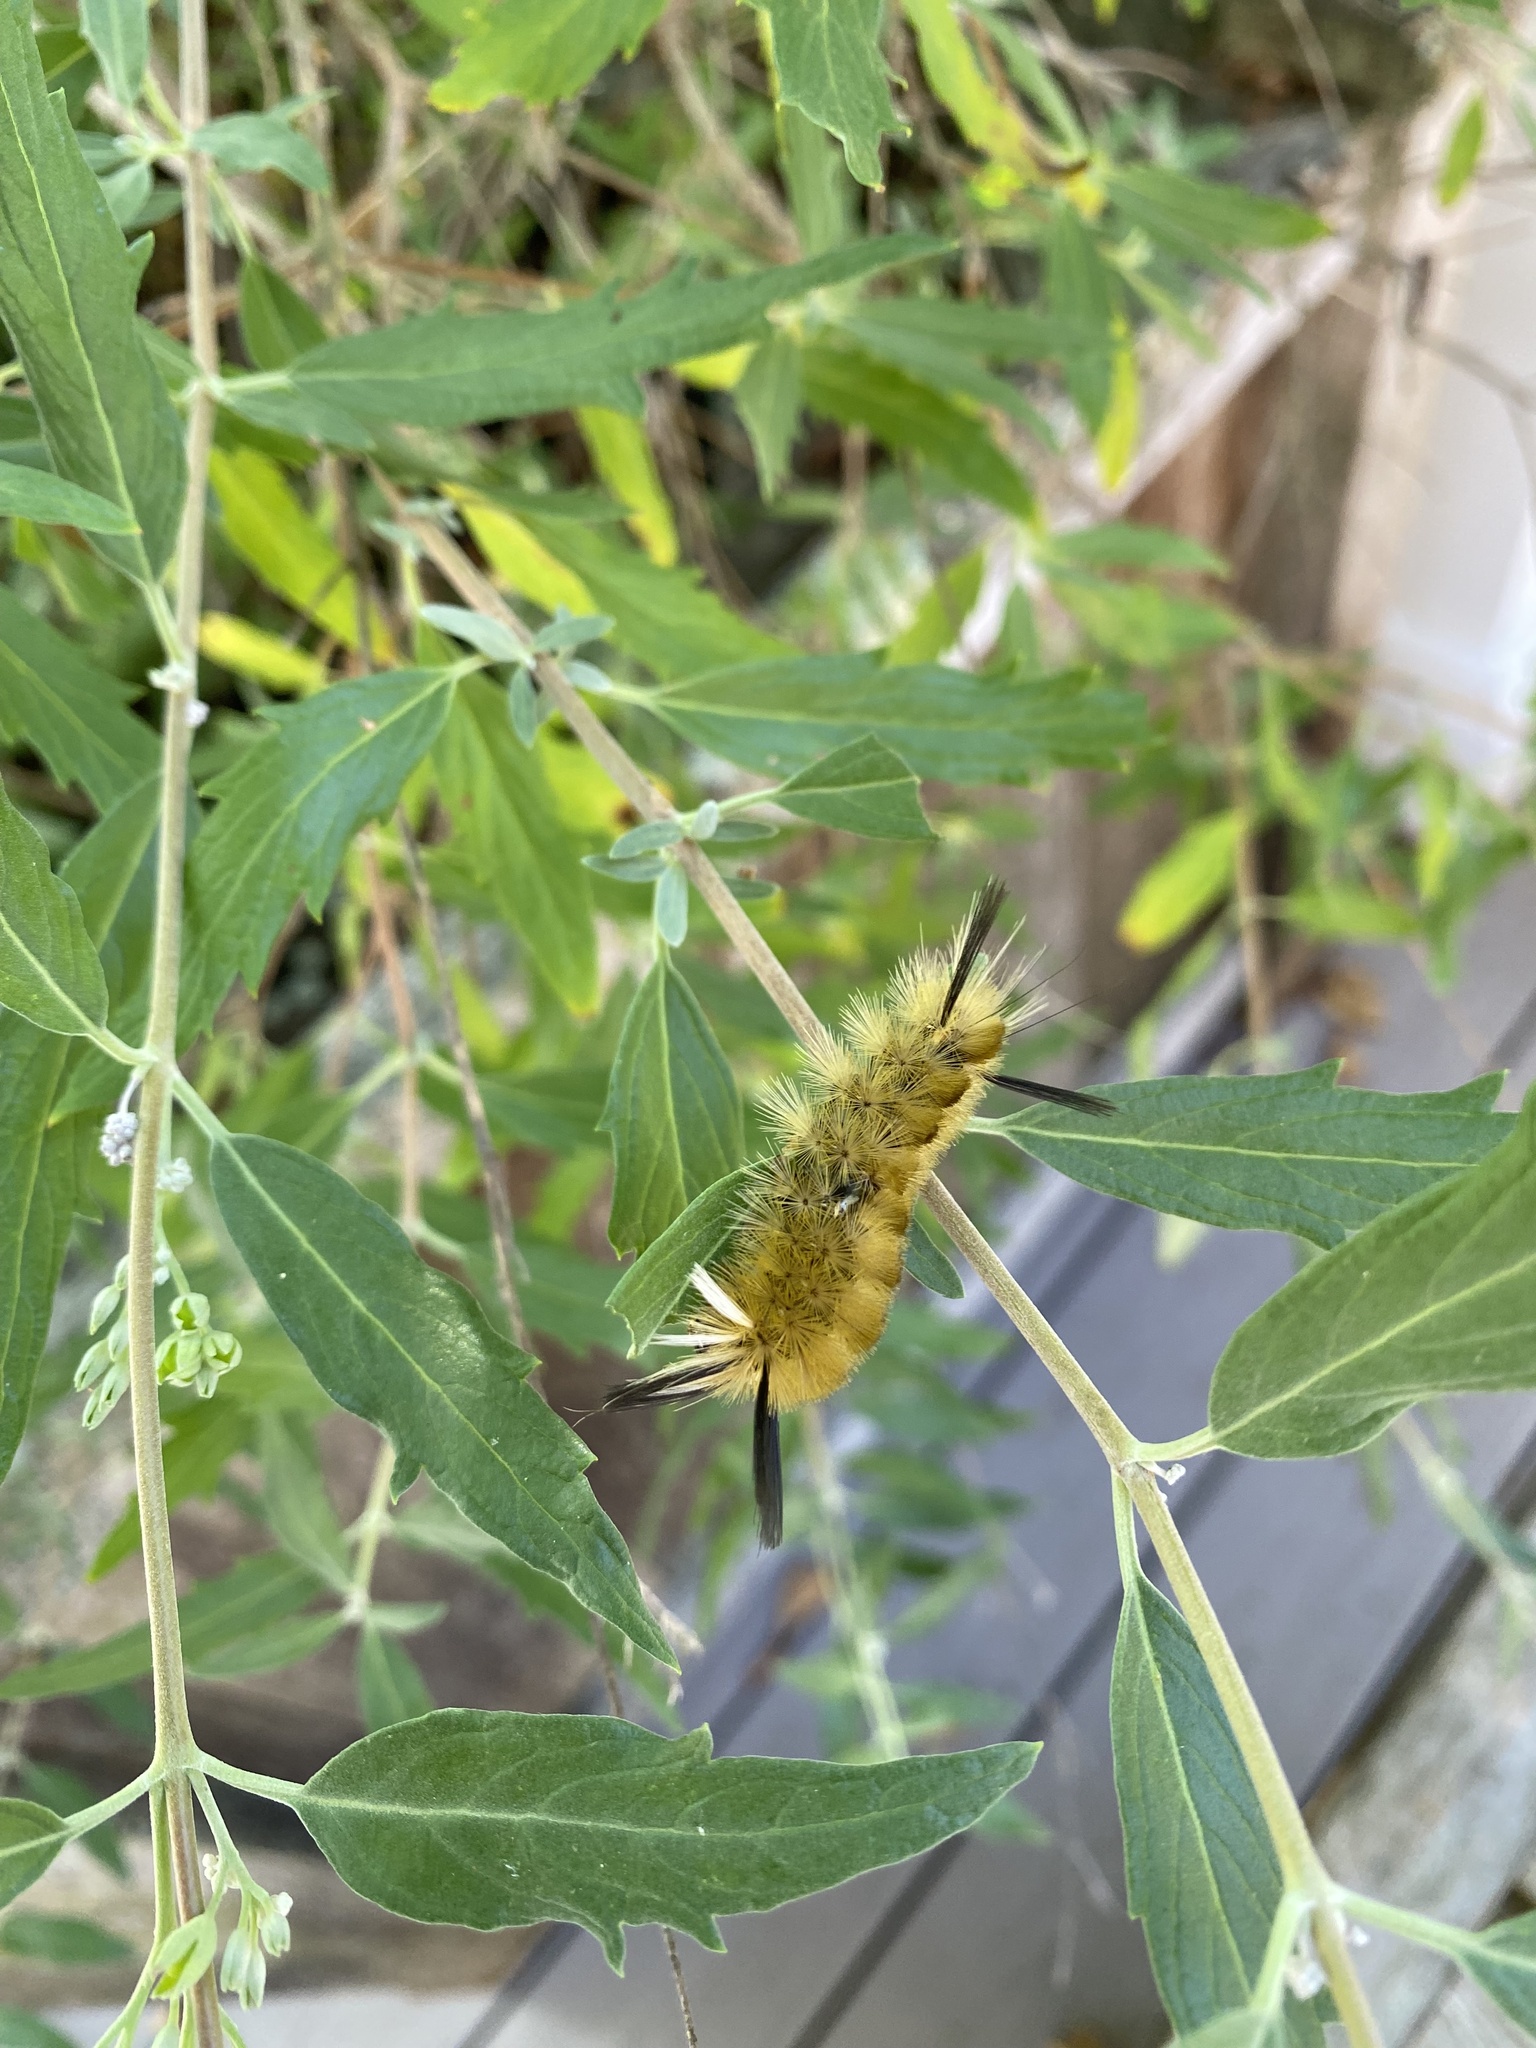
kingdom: Animalia
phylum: Arthropoda
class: Insecta
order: Lepidoptera
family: Erebidae
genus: Halysidota
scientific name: Halysidota tessellaris
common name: Banded tussock moth
